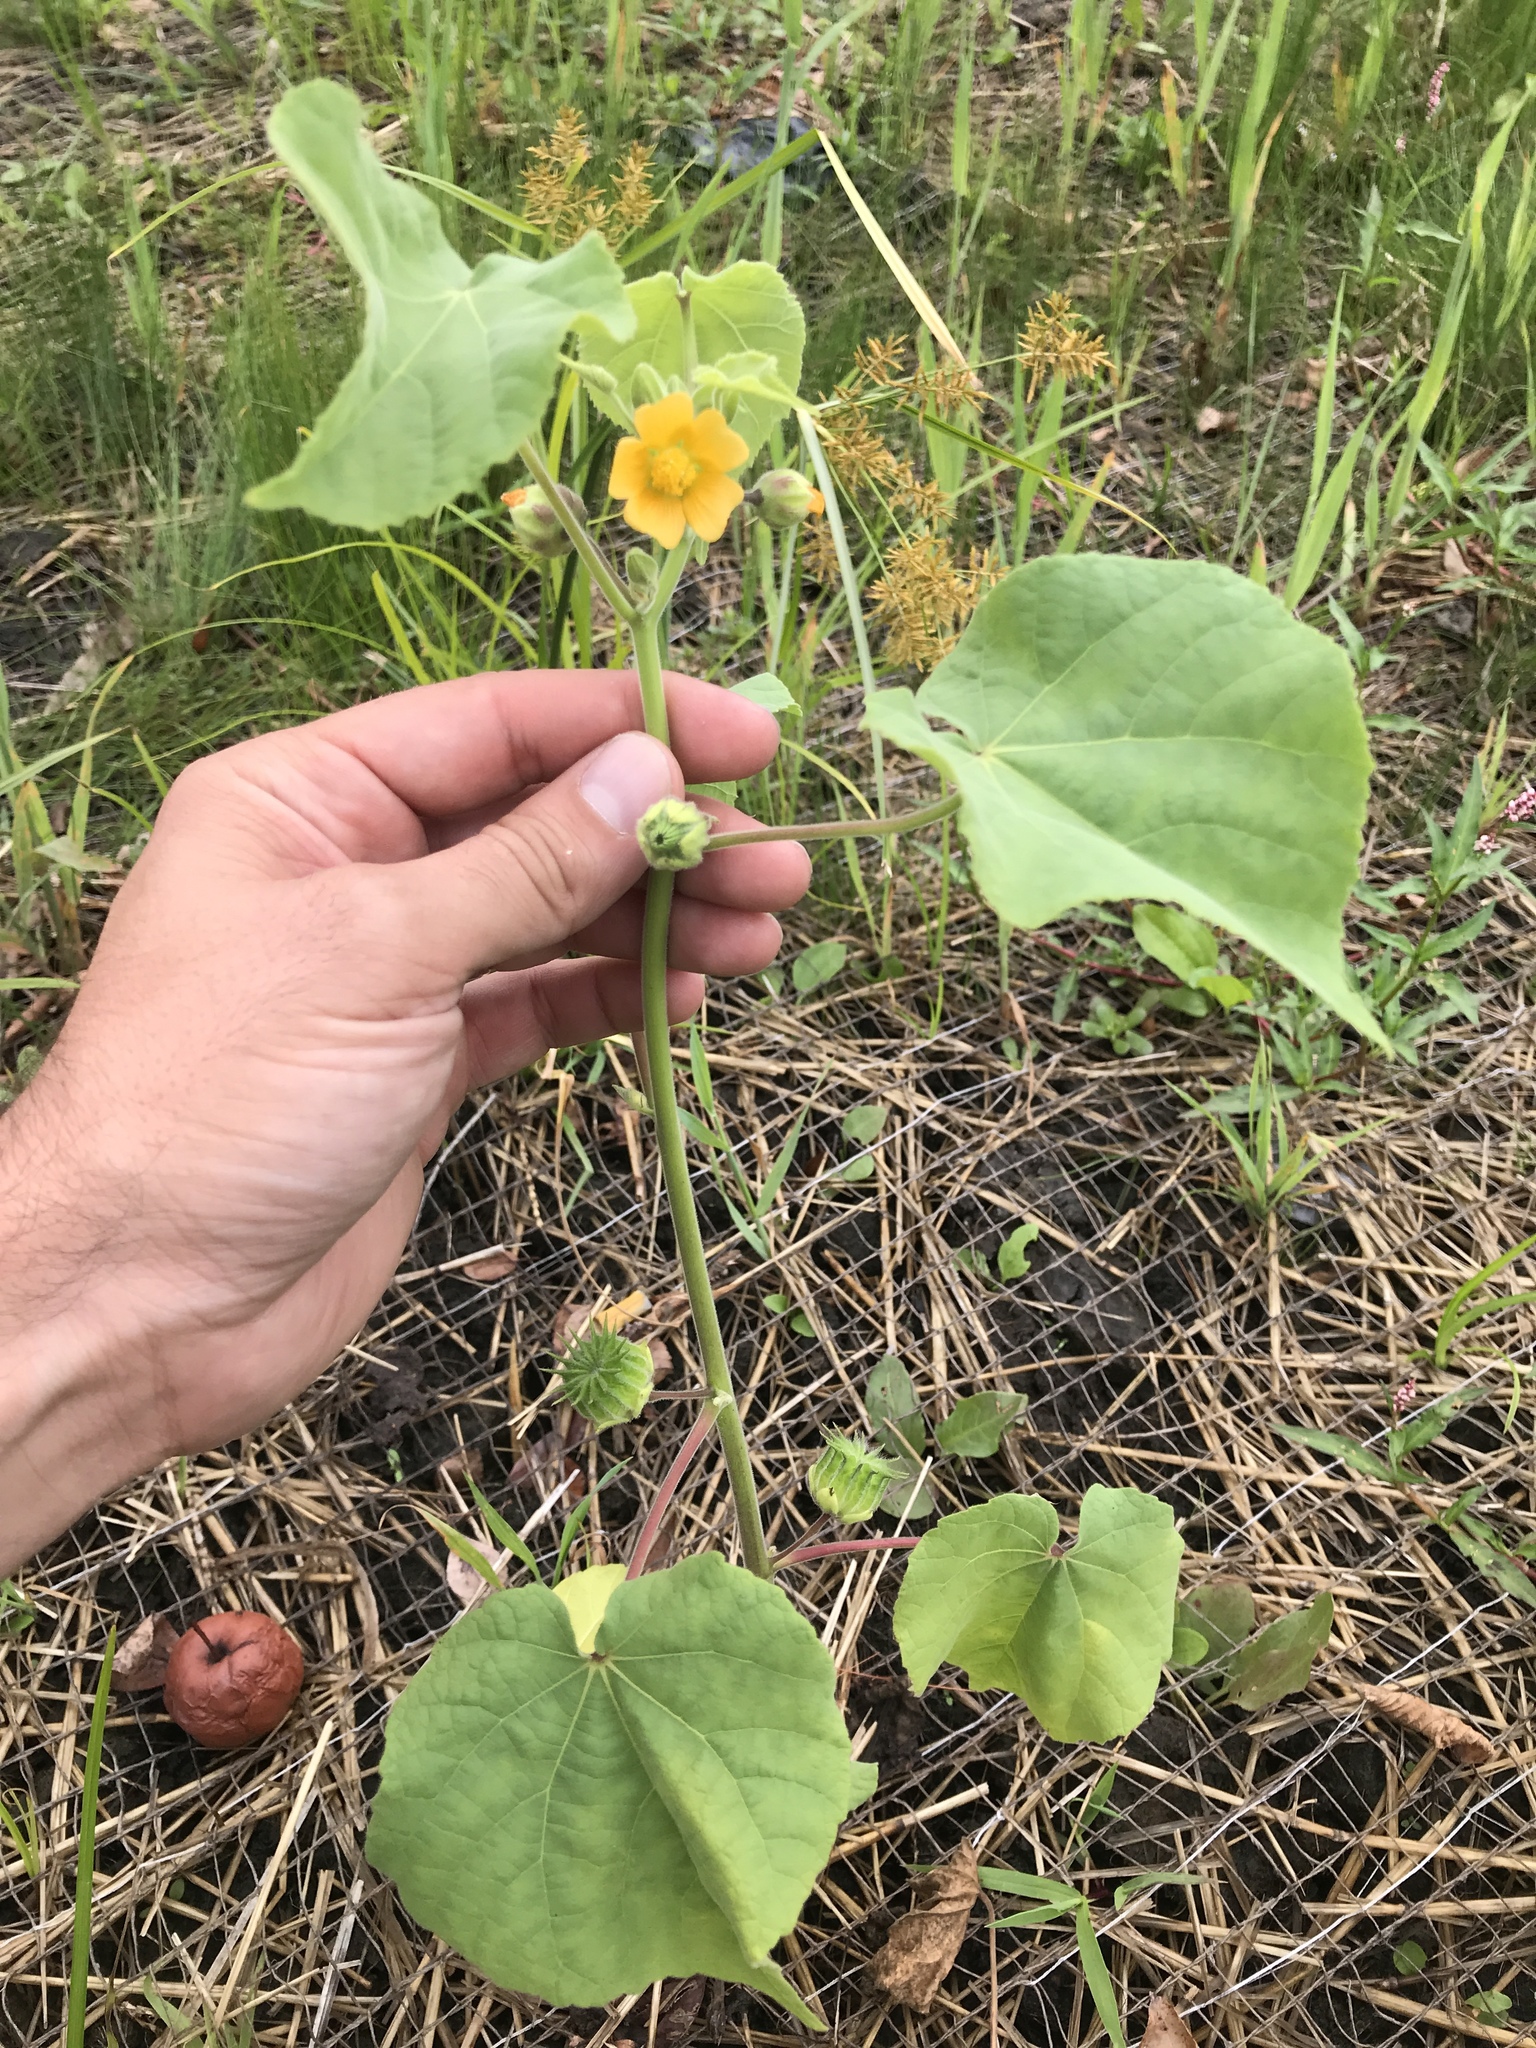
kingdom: Plantae
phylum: Tracheophyta
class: Magnoliopsida
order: Malvales
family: Malvaceae
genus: Abutilon
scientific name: Abutilon theophrasti
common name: Velvetleaf
